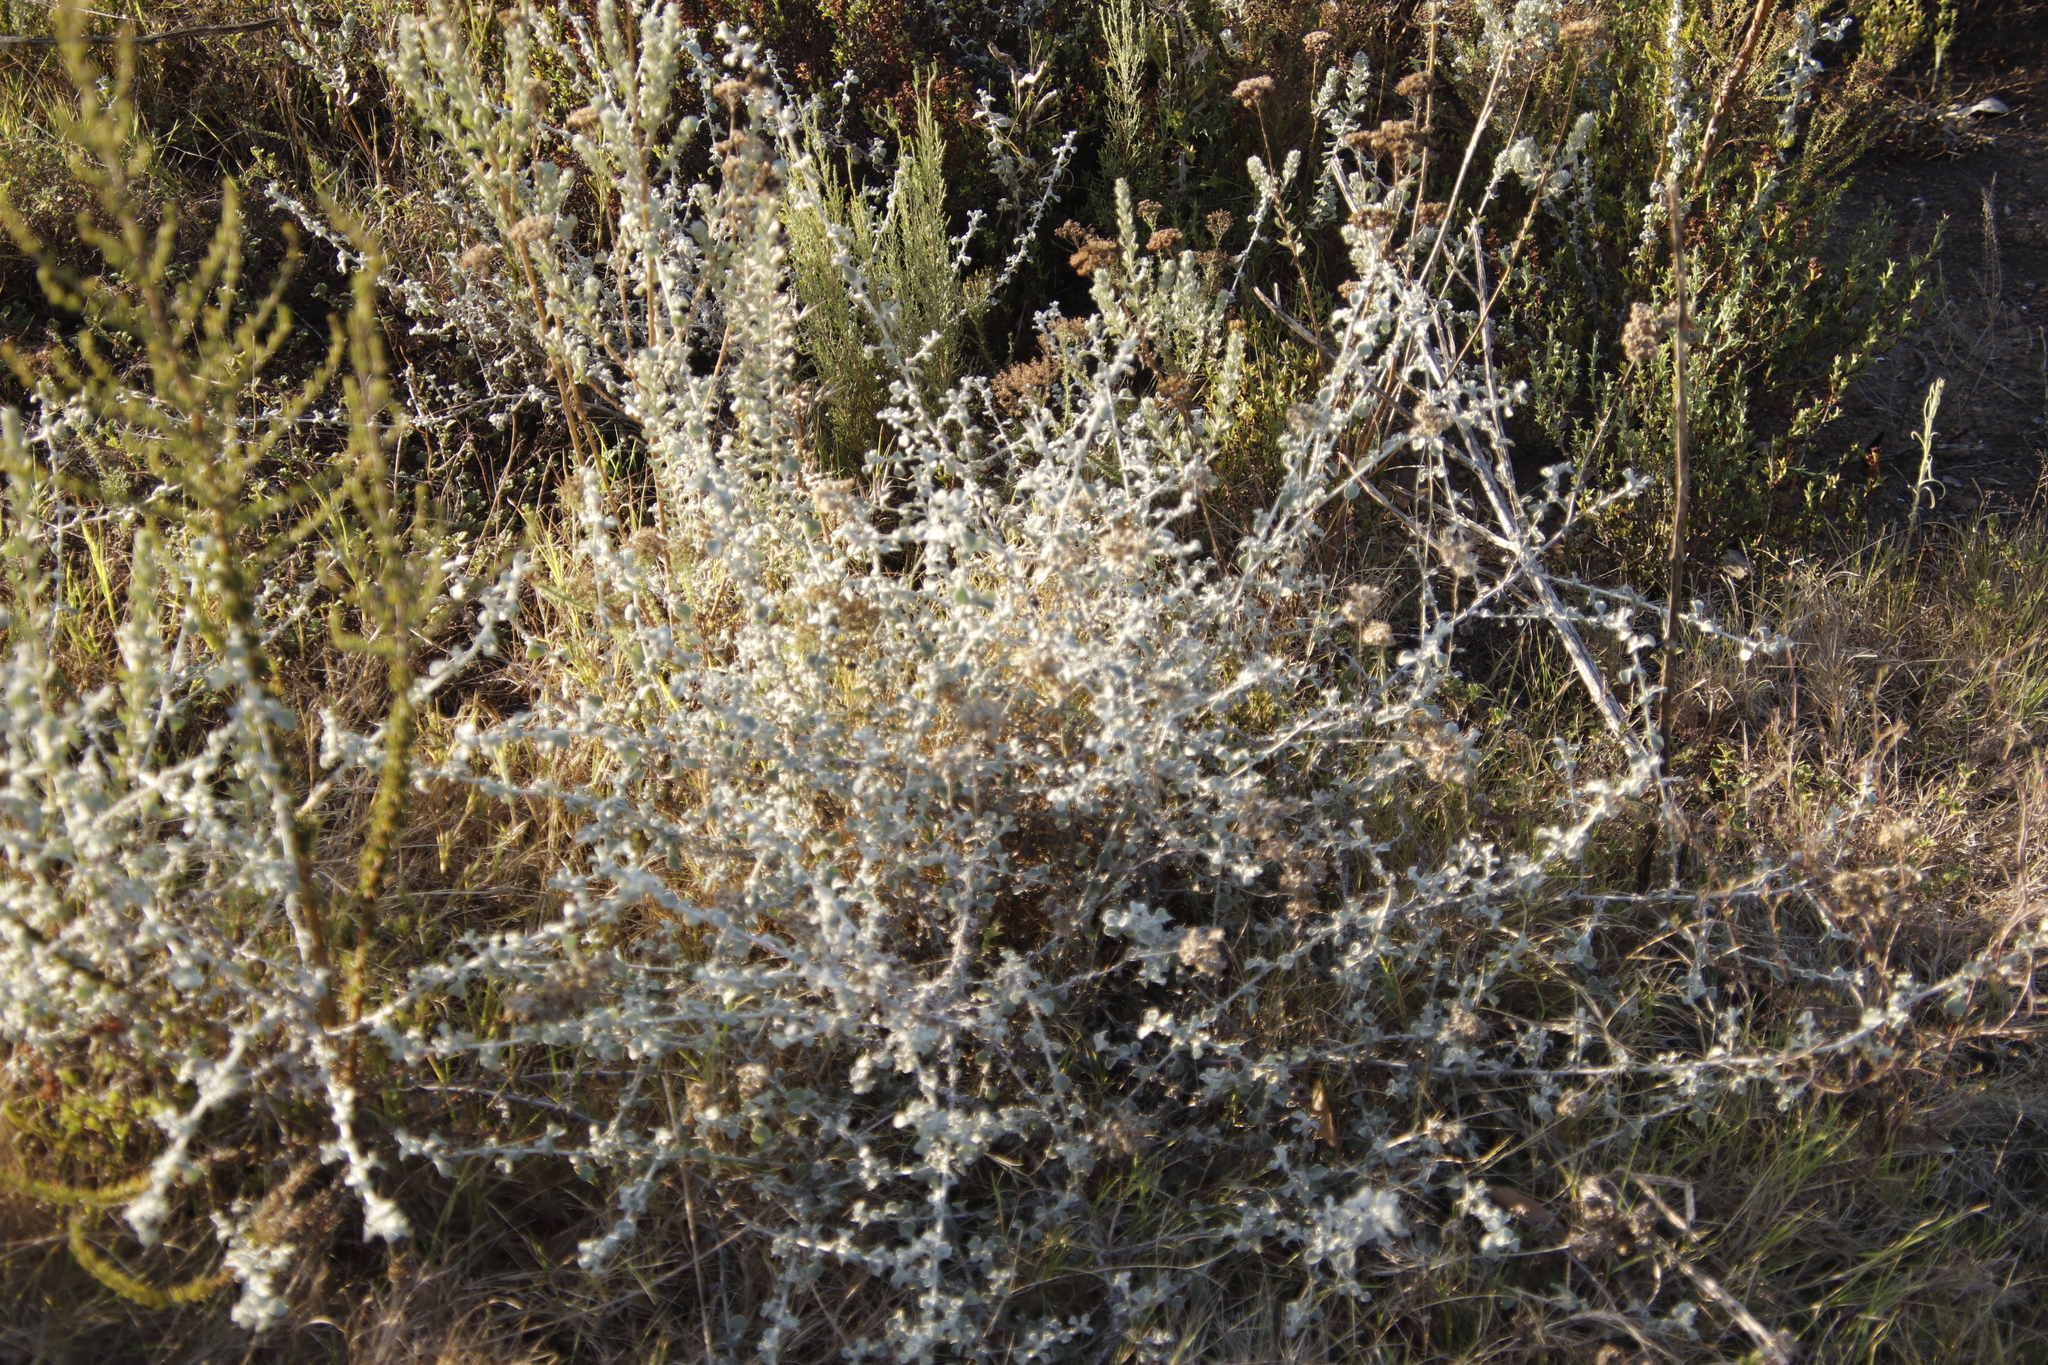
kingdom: Plantae
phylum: Tracheophyta
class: Magnoliopsida
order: Asterales
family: Asteraceae
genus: Helichrysum
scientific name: Helichrysum patulum
